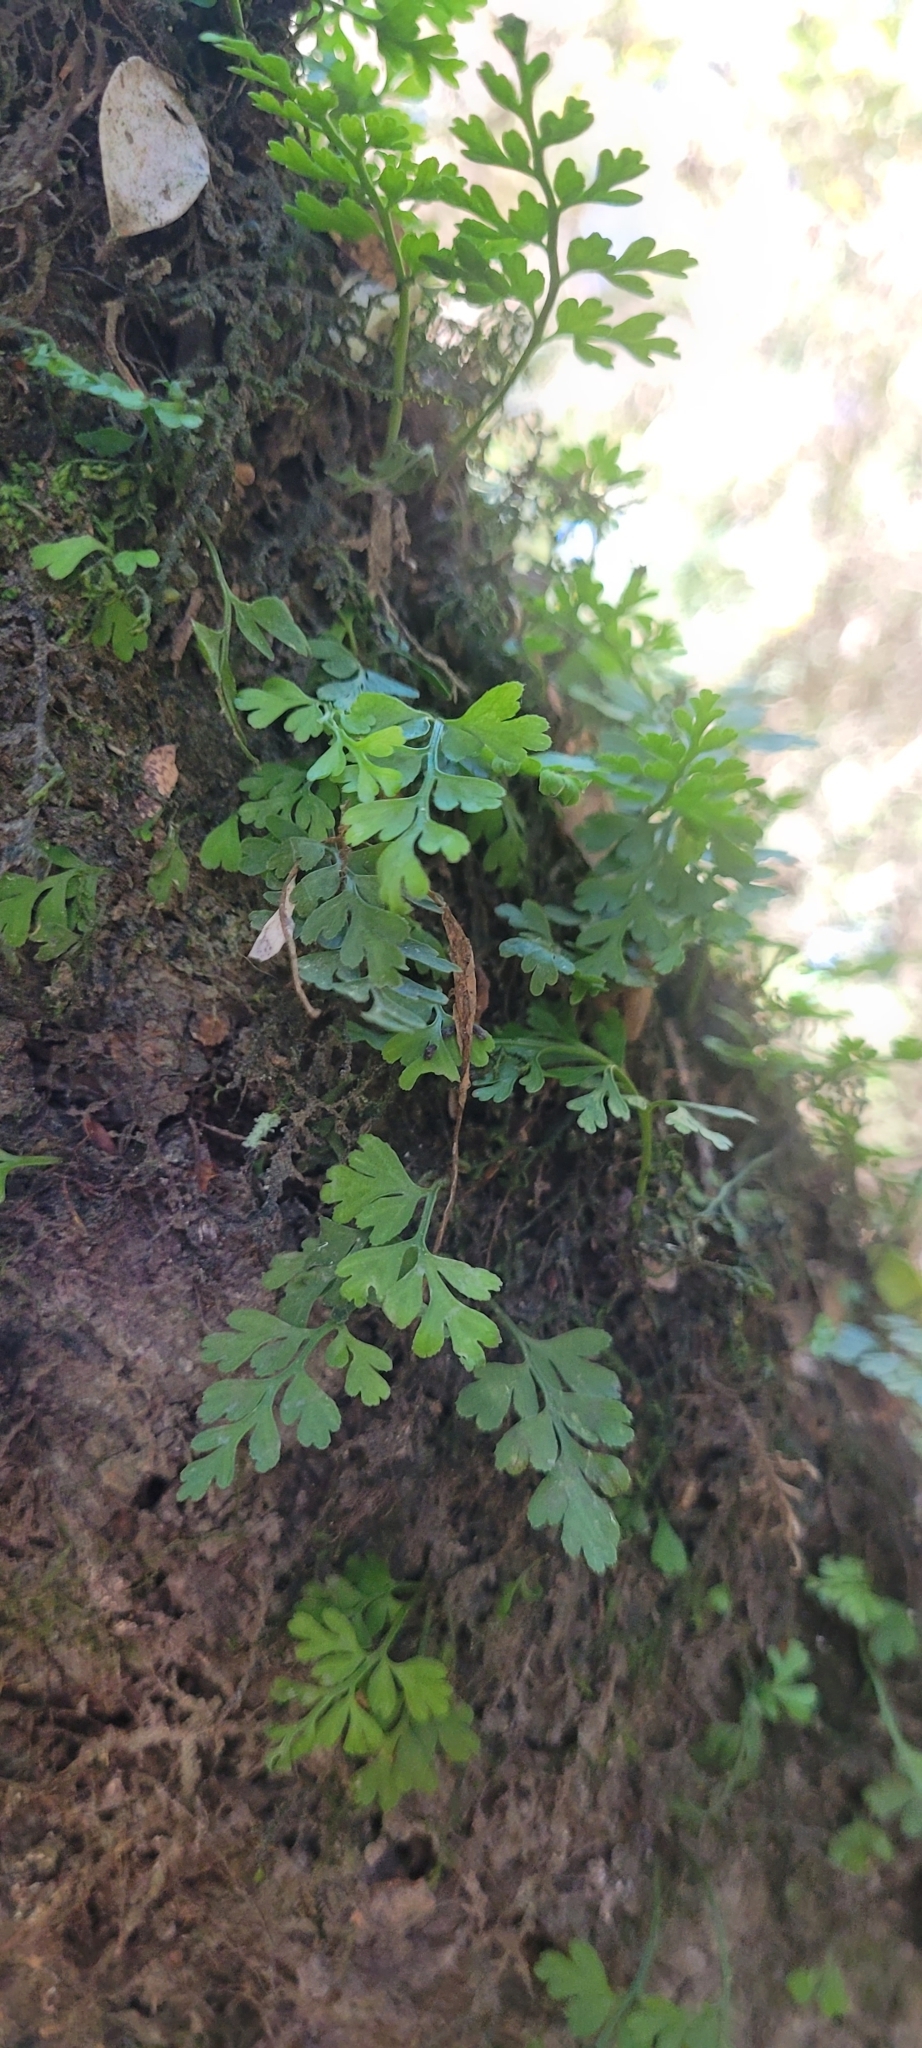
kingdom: Plantae
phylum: Tracheophyta
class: Polypodiopsida
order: Polypodiales
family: Aspleniaceae
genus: Asplenium
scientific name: Asplenium dareoides
